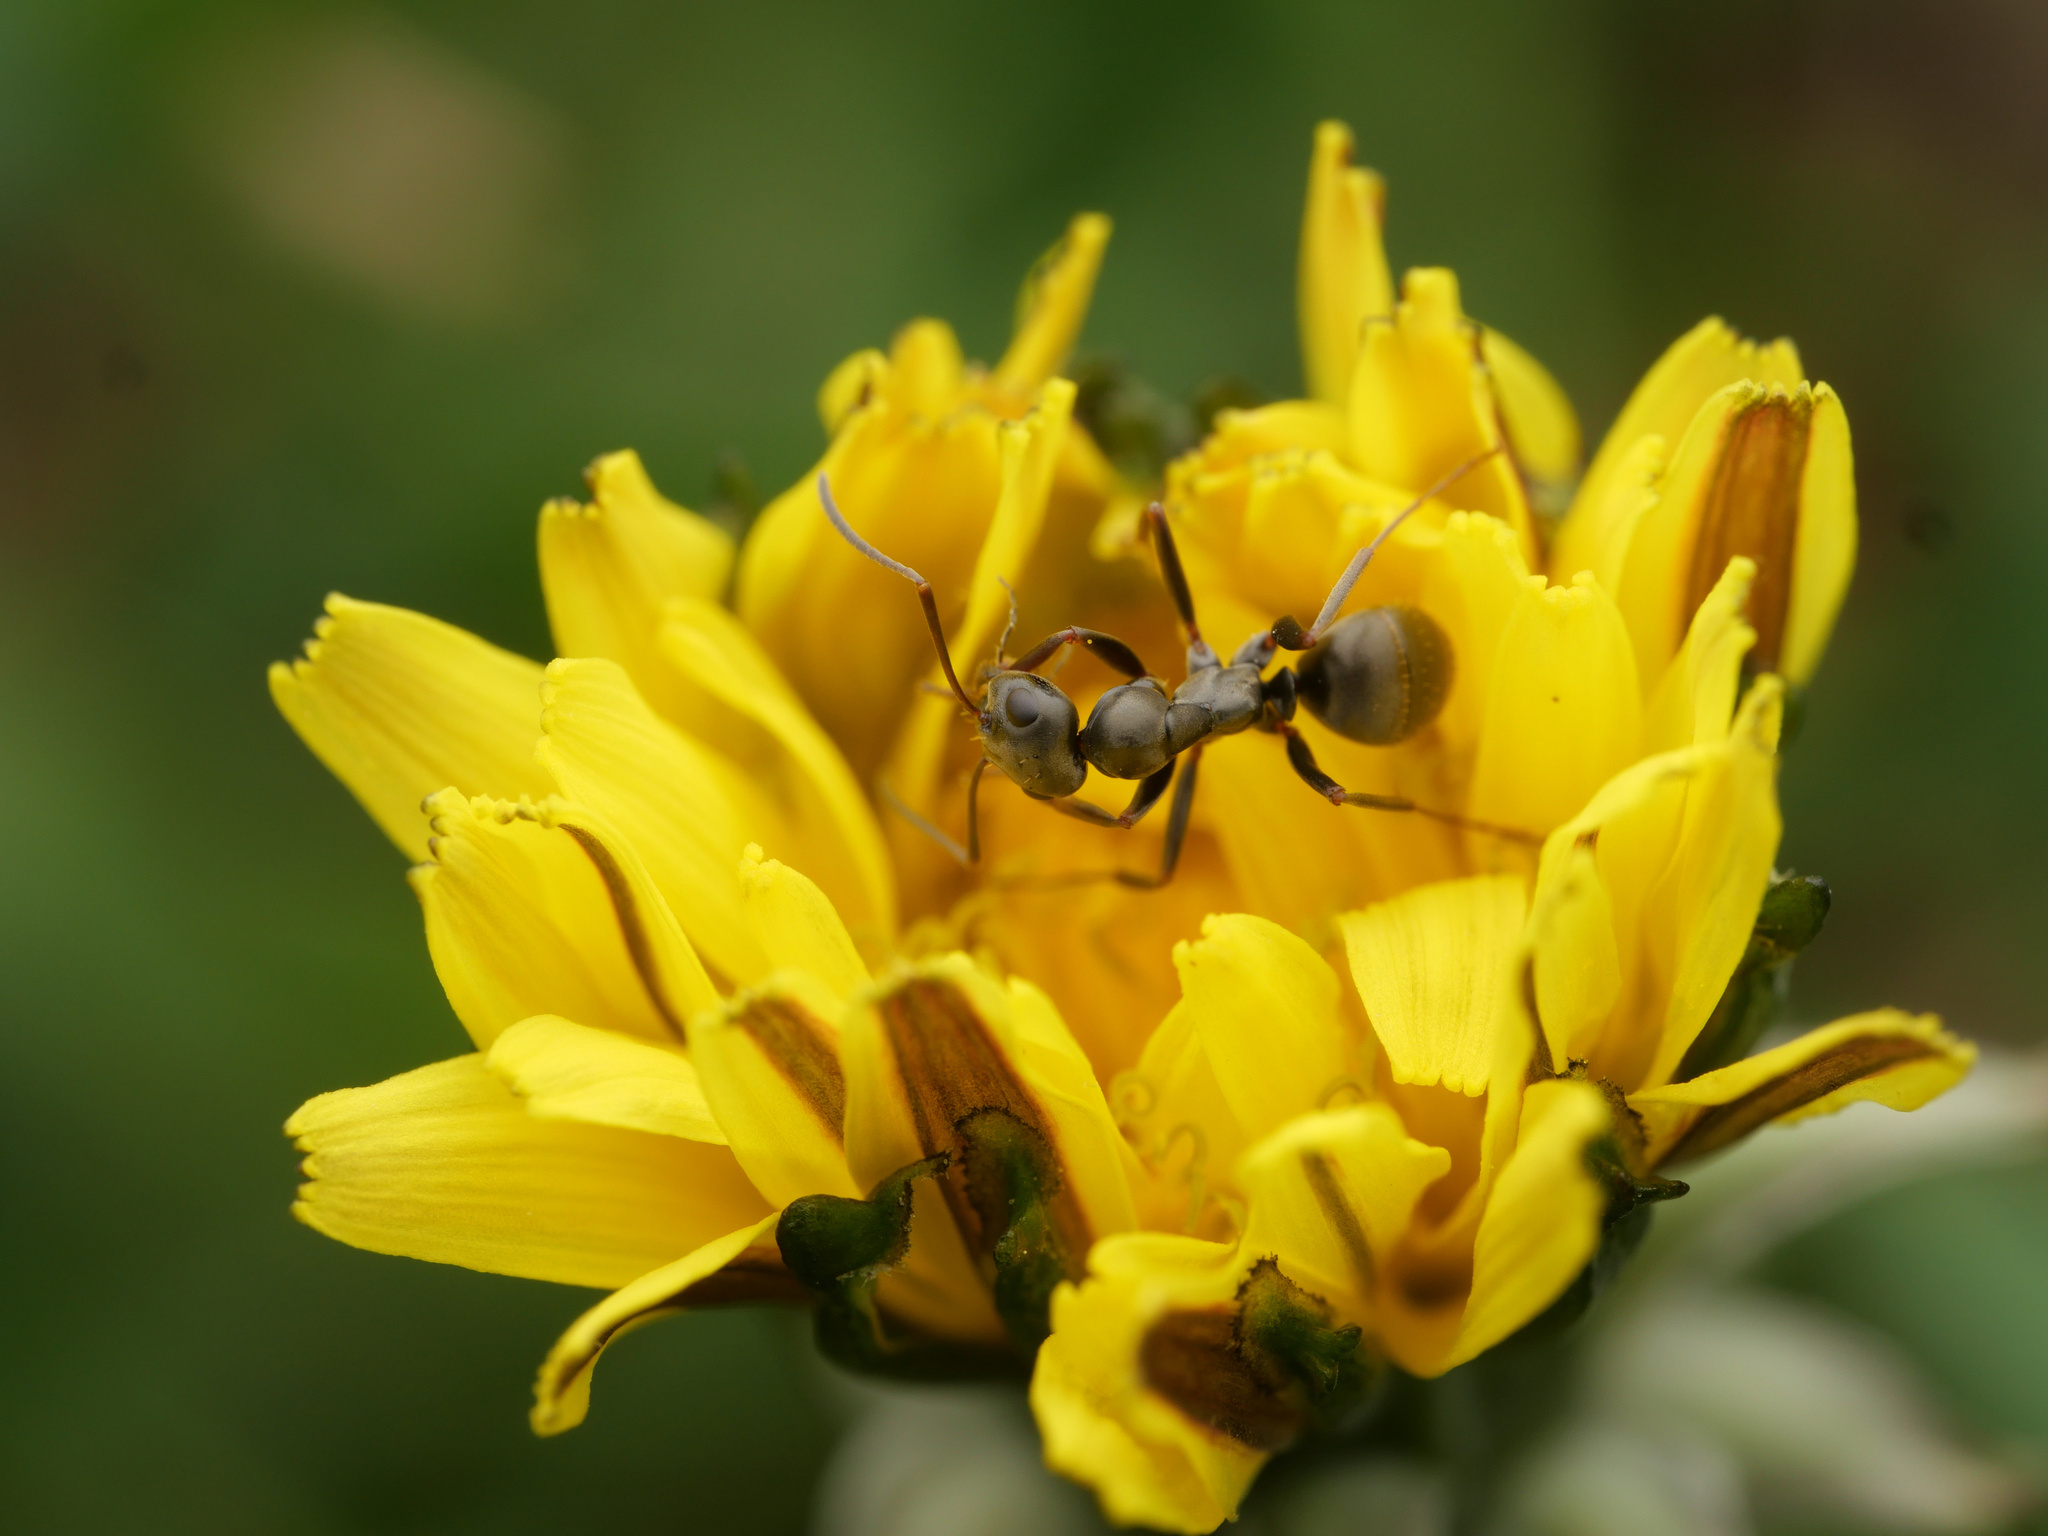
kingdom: Animalia
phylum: Arthropoda
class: Insecta
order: Hymenoptera
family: Formicidae
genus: Formica
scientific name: Formica fusca
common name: Silky ant
